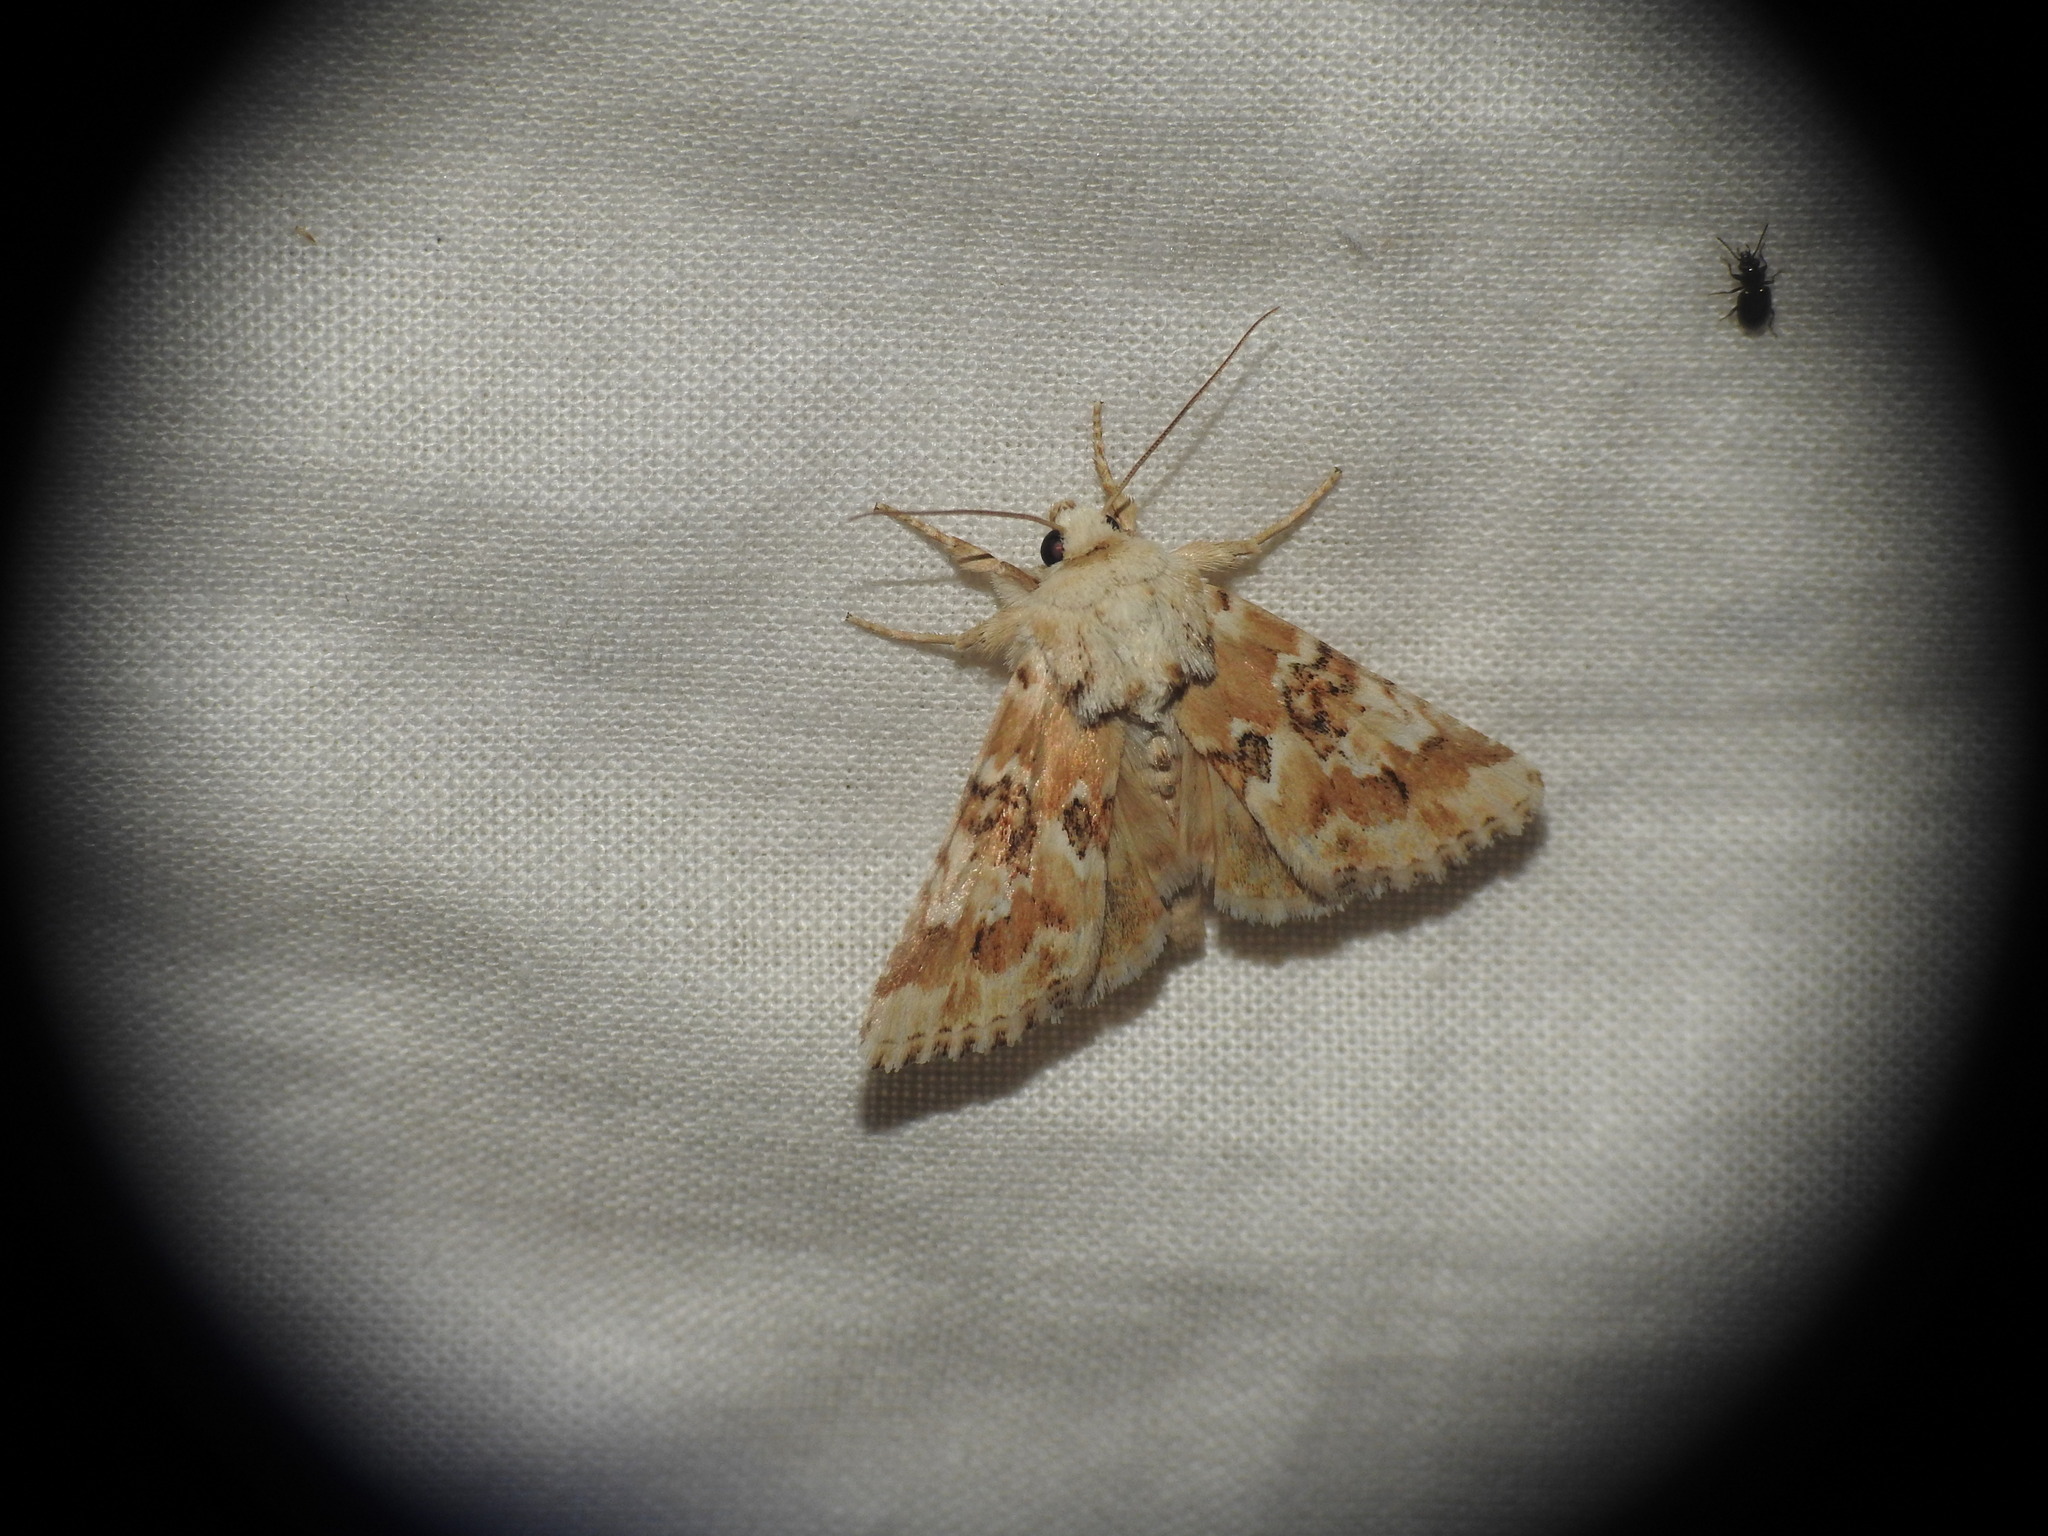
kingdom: Animalia
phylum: Arthropoda
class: Insecta
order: Lepidoptera
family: Noctuidae
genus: Eremobia
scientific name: Eremobia ochroleuca
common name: Dusky sallow
